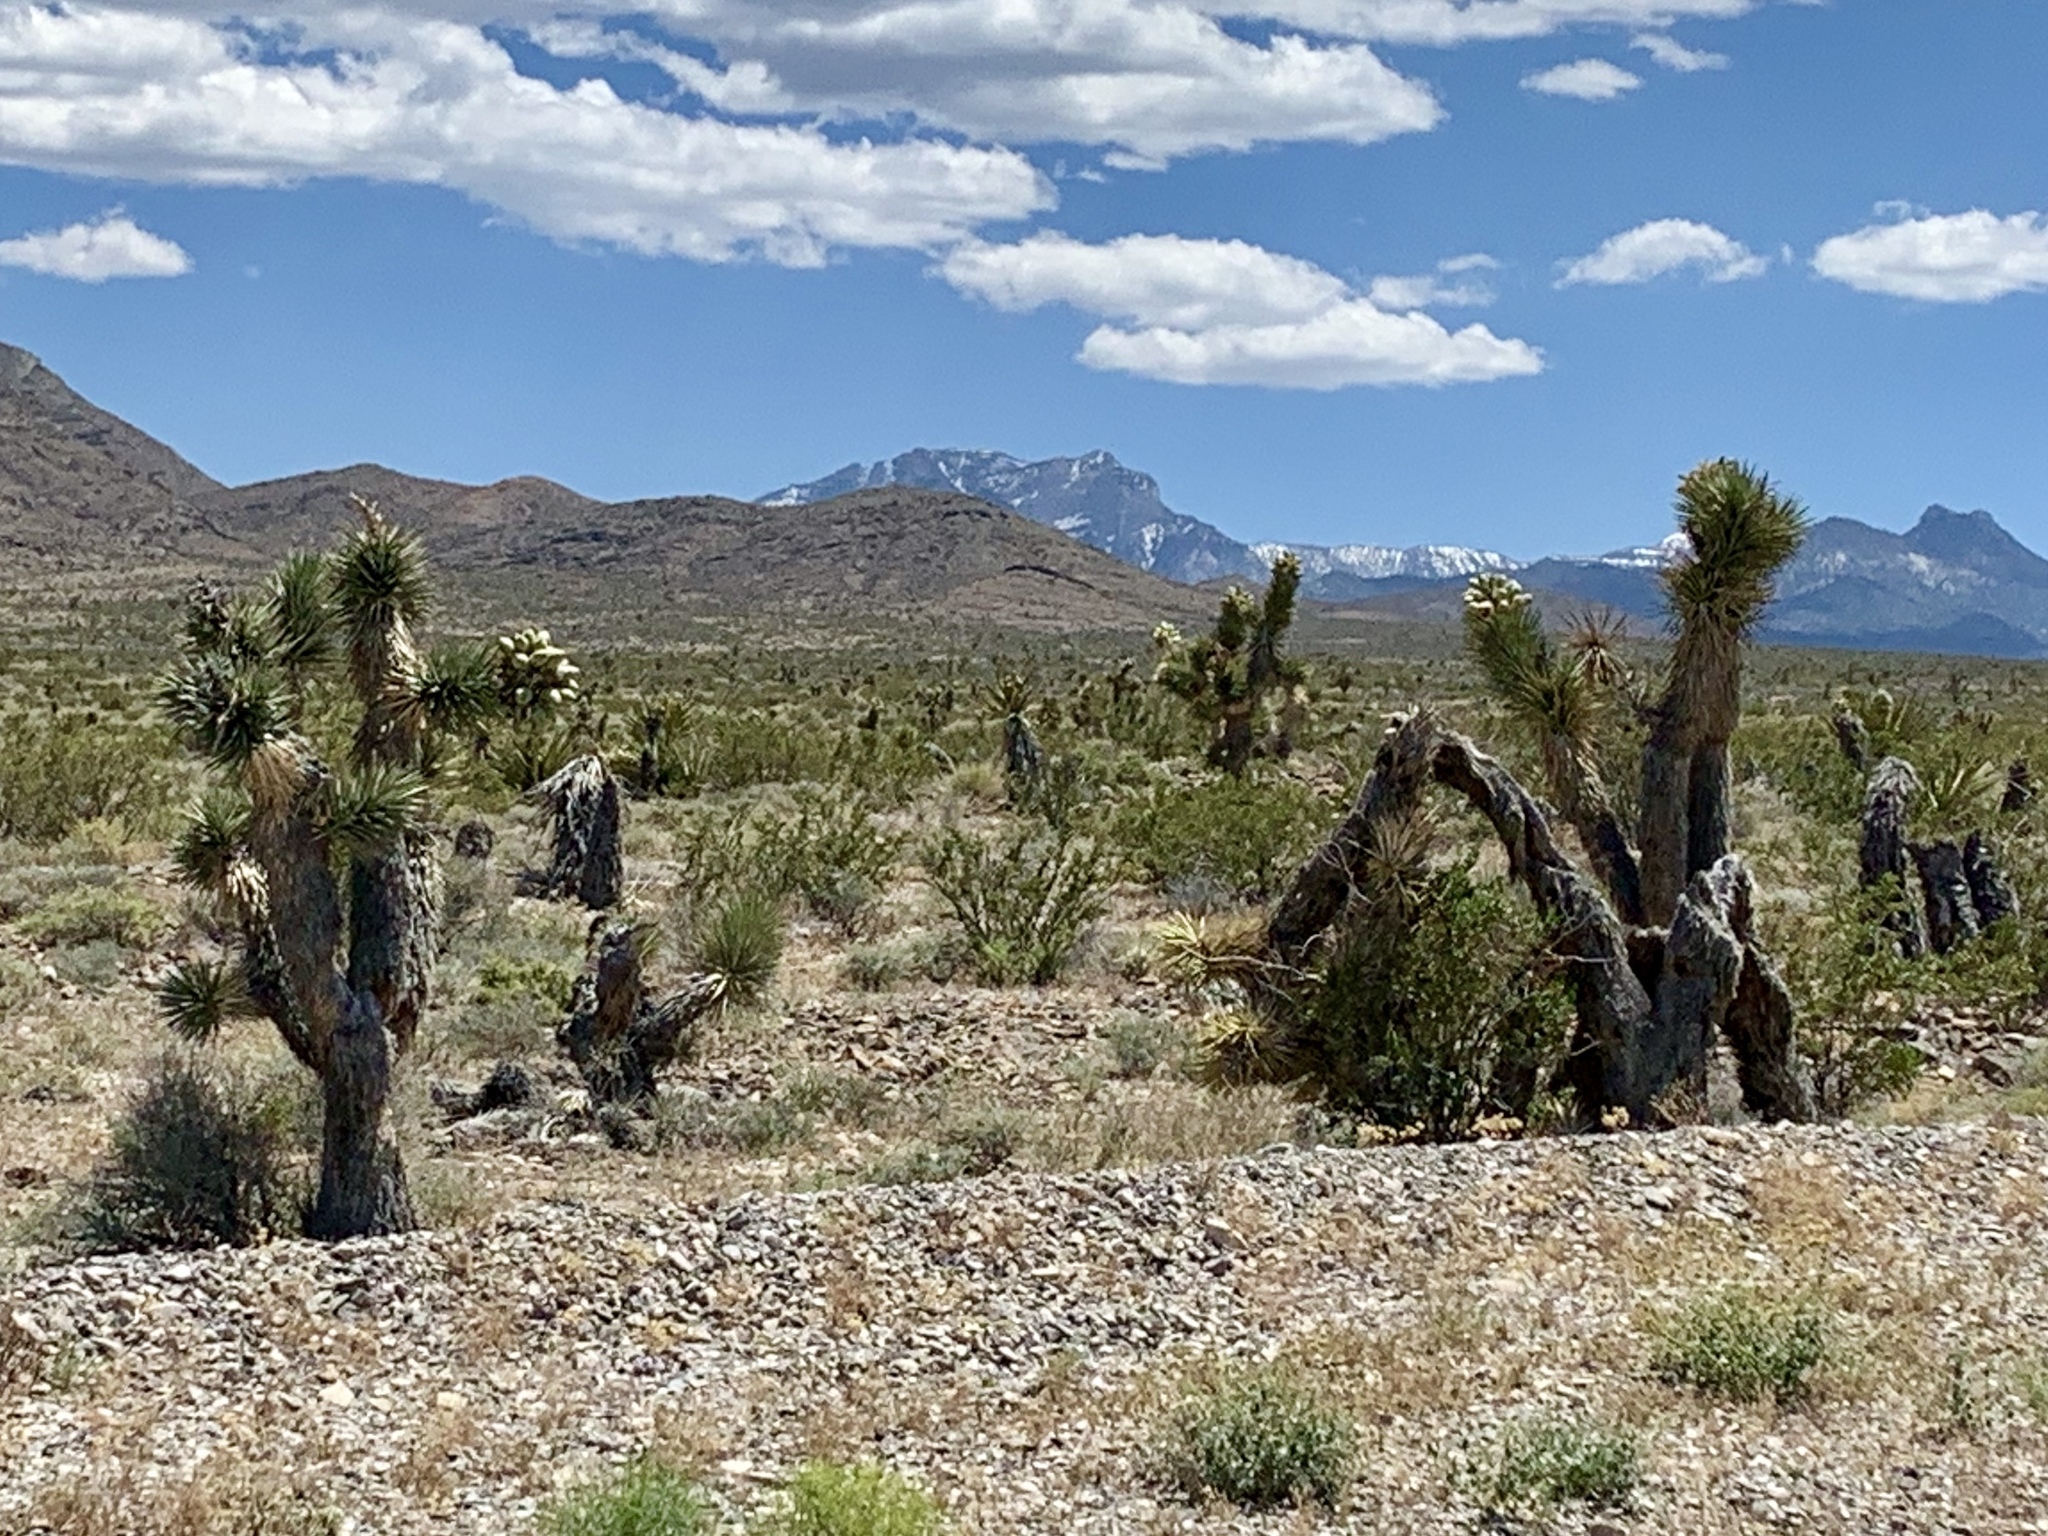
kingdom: Plantae
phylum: Tracheophyta
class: Liliopsida
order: Asparagales
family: Asparagaceae
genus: Yucca
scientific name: Yucca brevifolia
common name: Joshua tree
